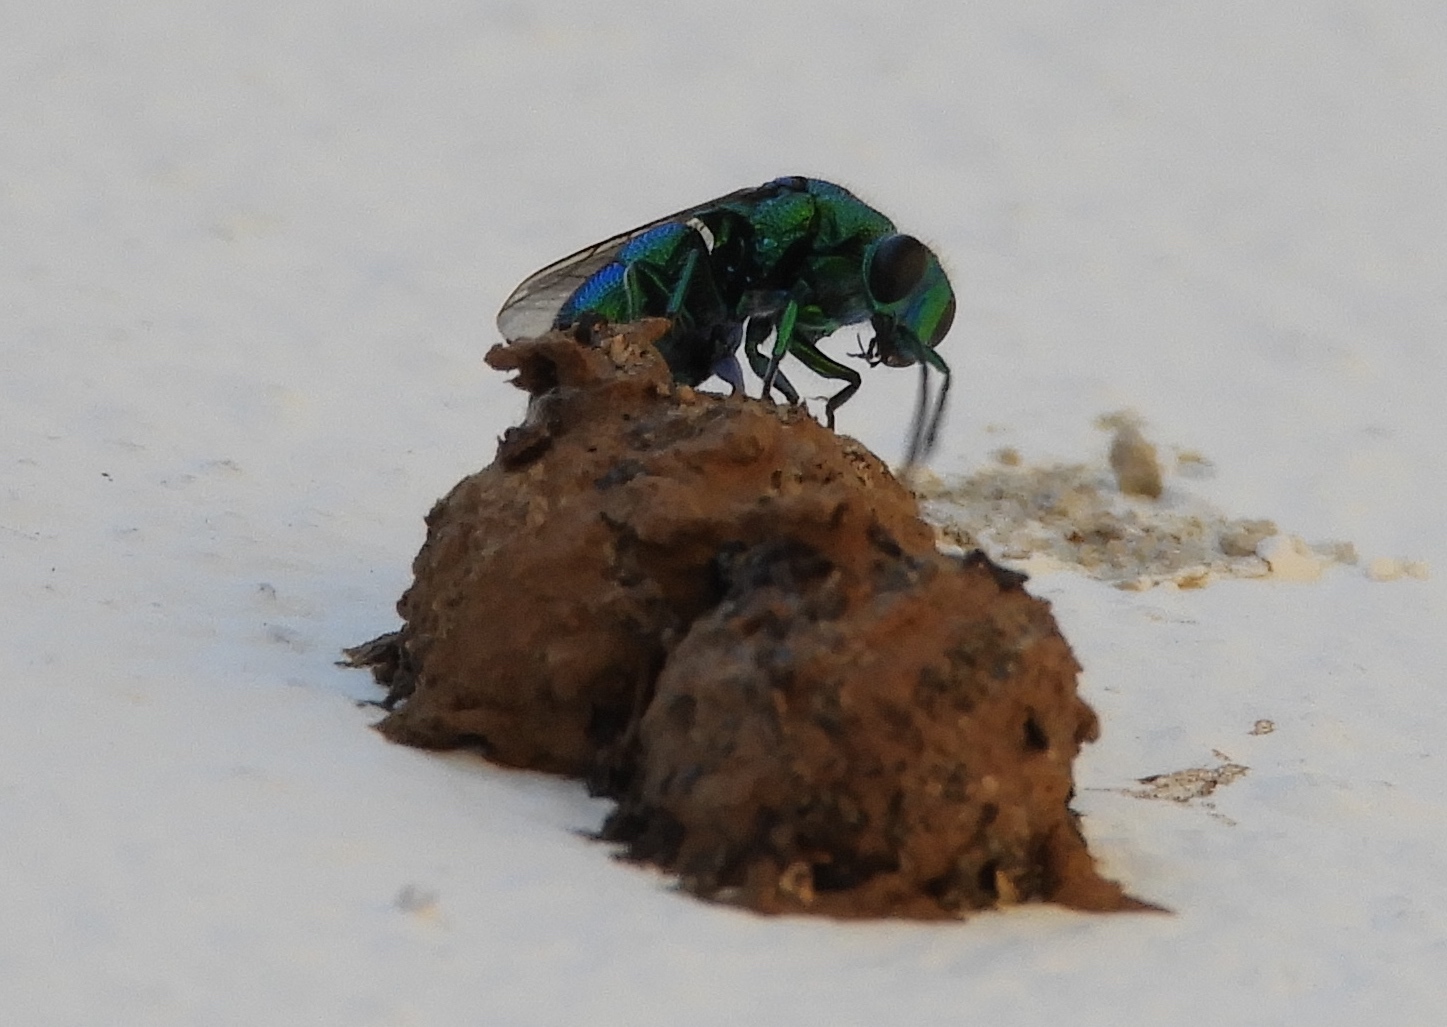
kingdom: Animalia
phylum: Arthropoda
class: Insecta
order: Hymenoptera
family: Chrysididae
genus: Chrysis
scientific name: Chrysis
